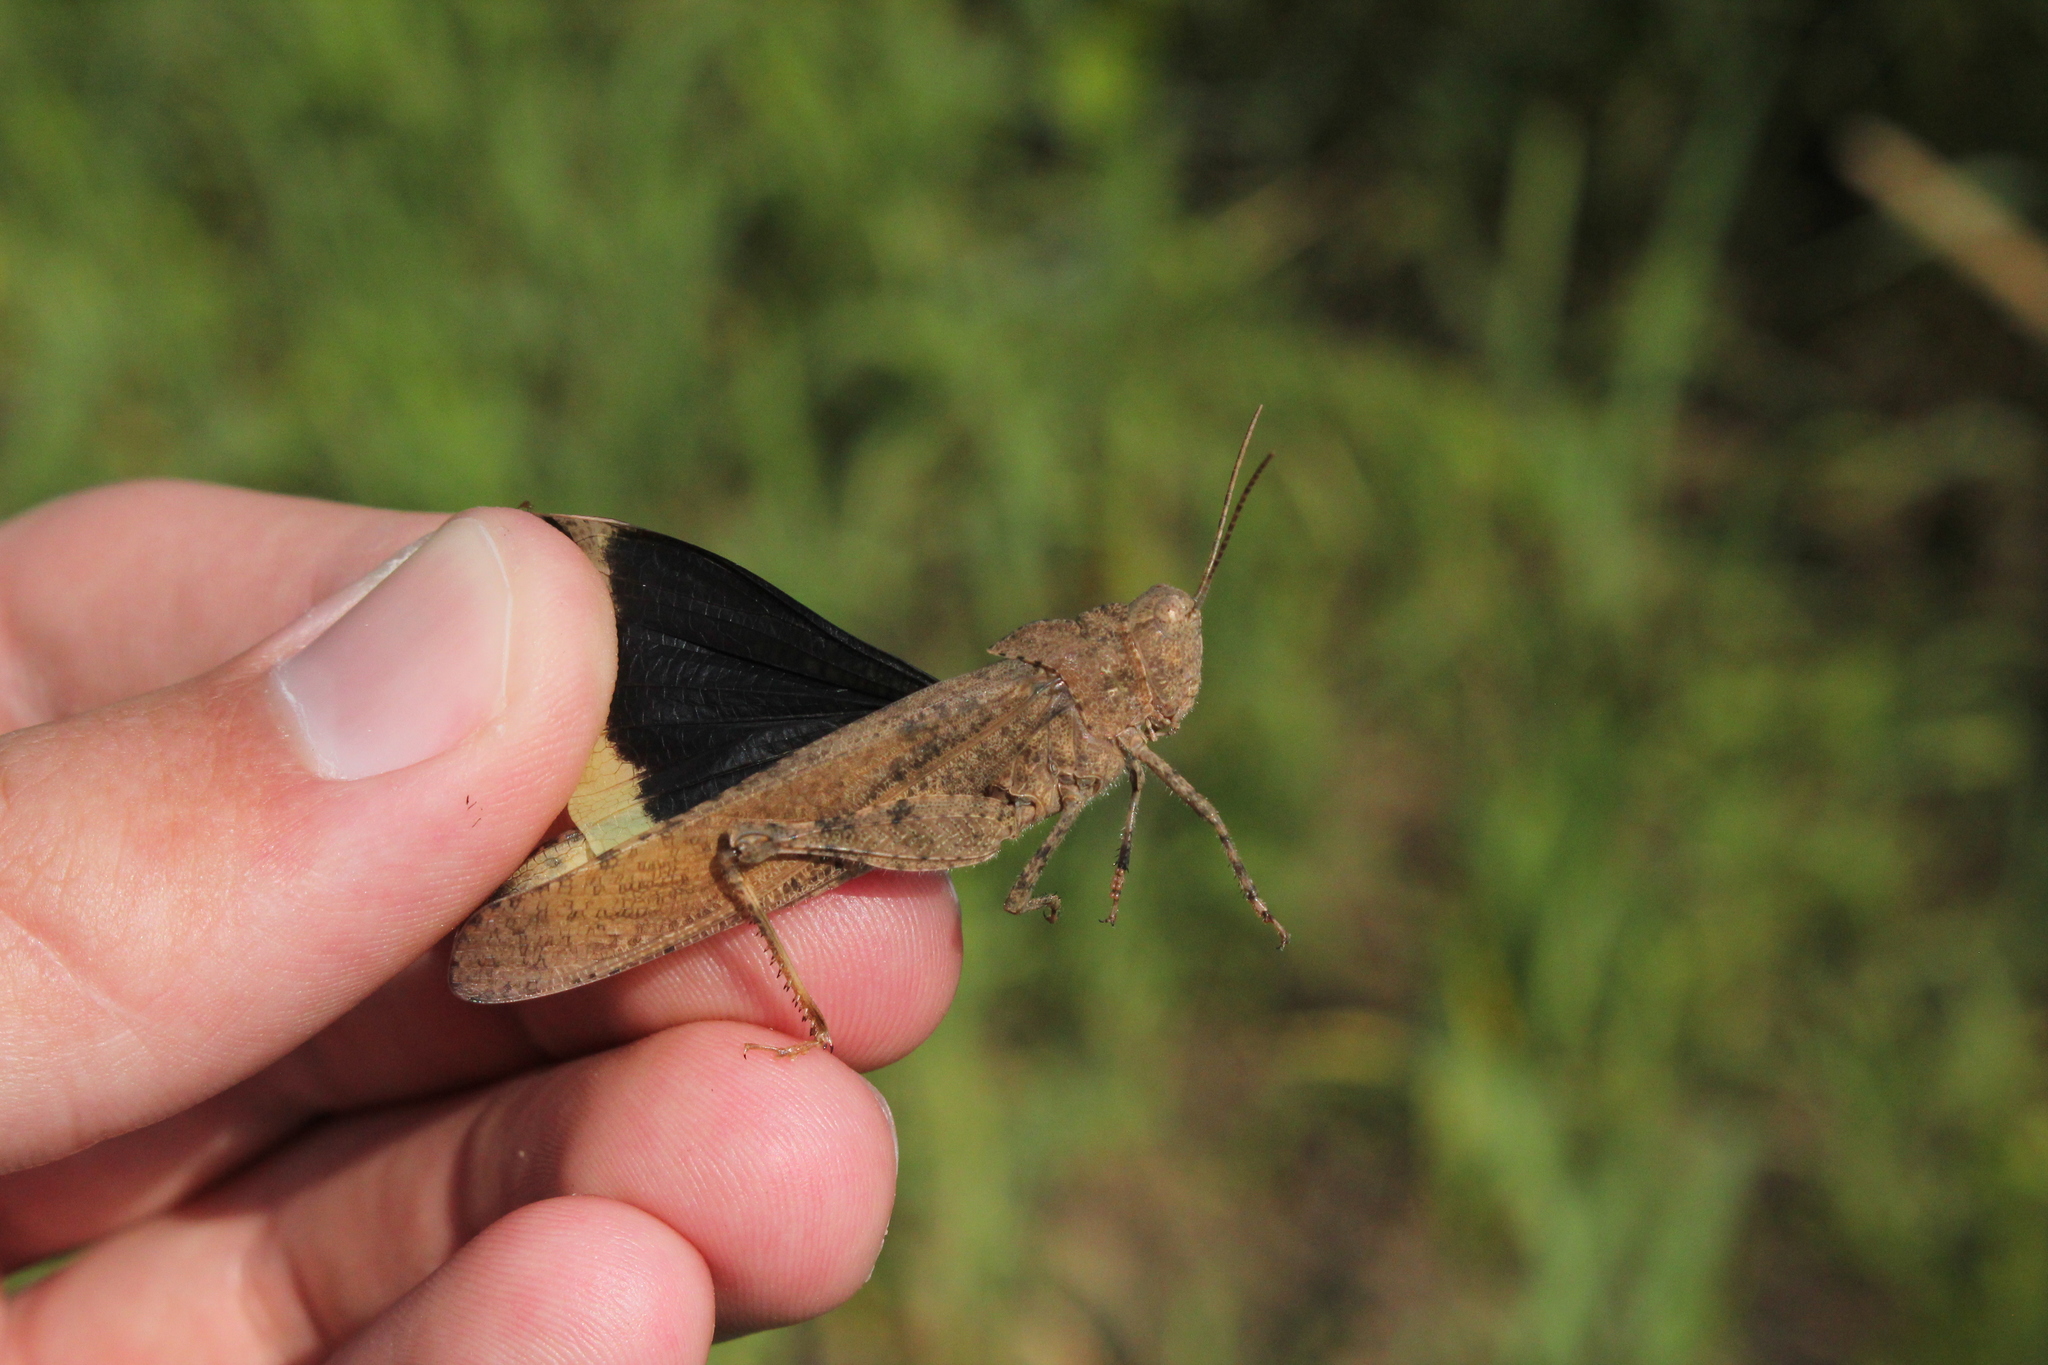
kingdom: Animalia
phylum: Arthropoda
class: Insecta
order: Orthoptera
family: Acrididae
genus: Dissosteira
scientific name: Dissosteira carolina
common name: Carolina grasshopper
